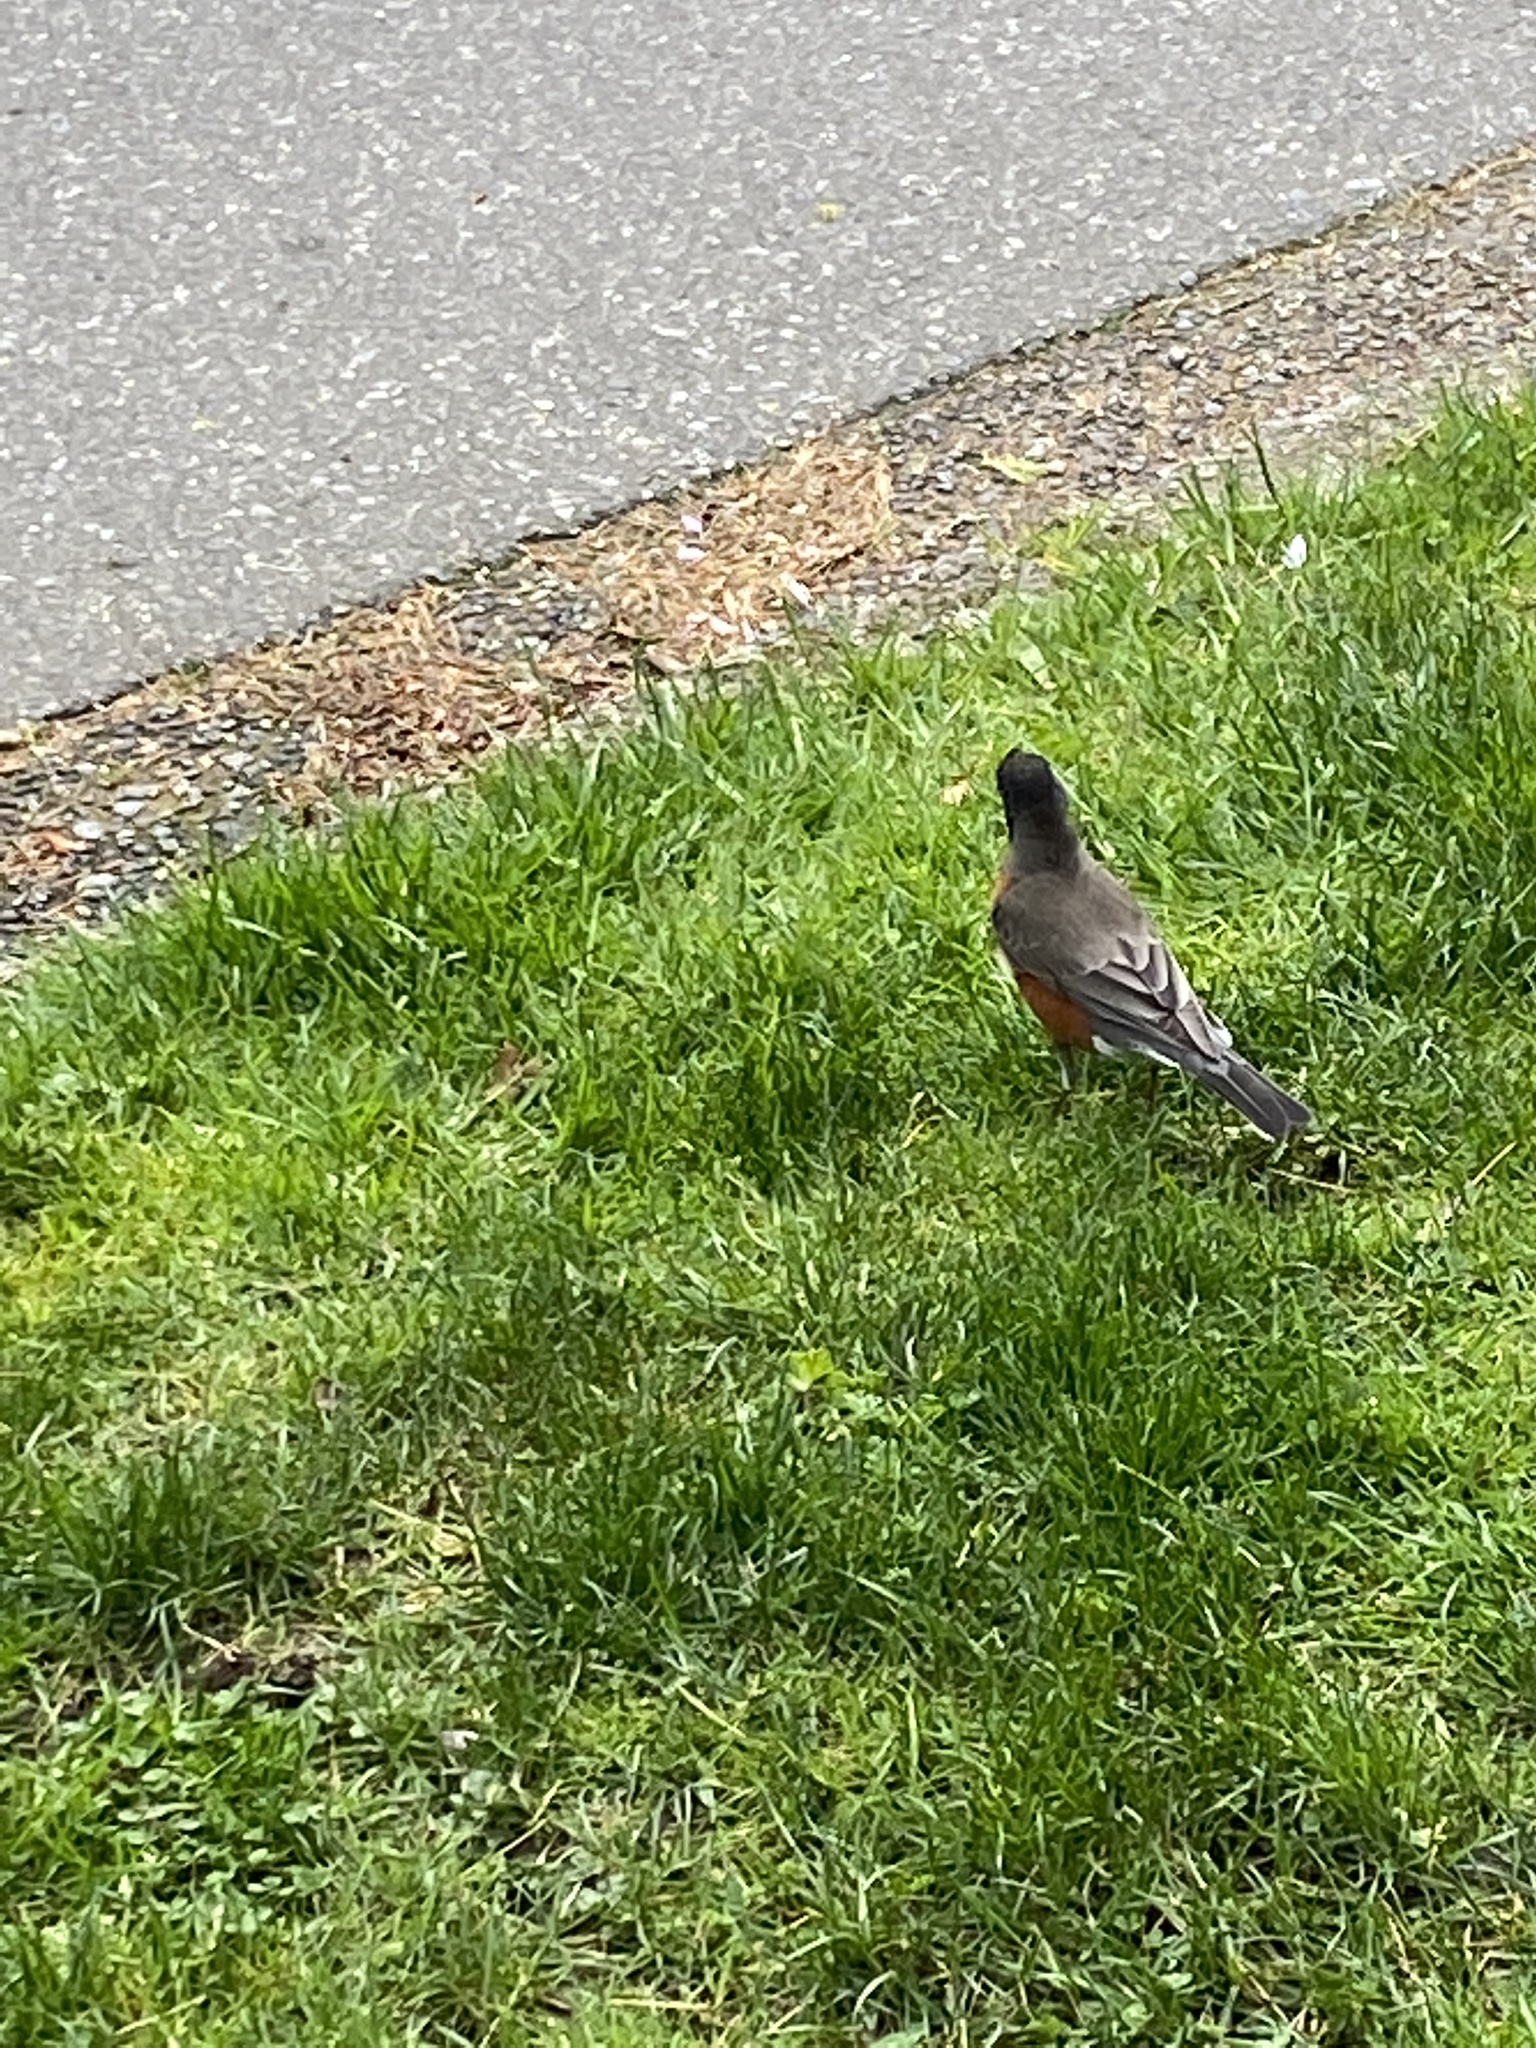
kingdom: Animalia
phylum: Chordata
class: Aves
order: Passeriformes
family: Turdidae
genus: Turdus
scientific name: Turdus migratorius
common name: American robin
